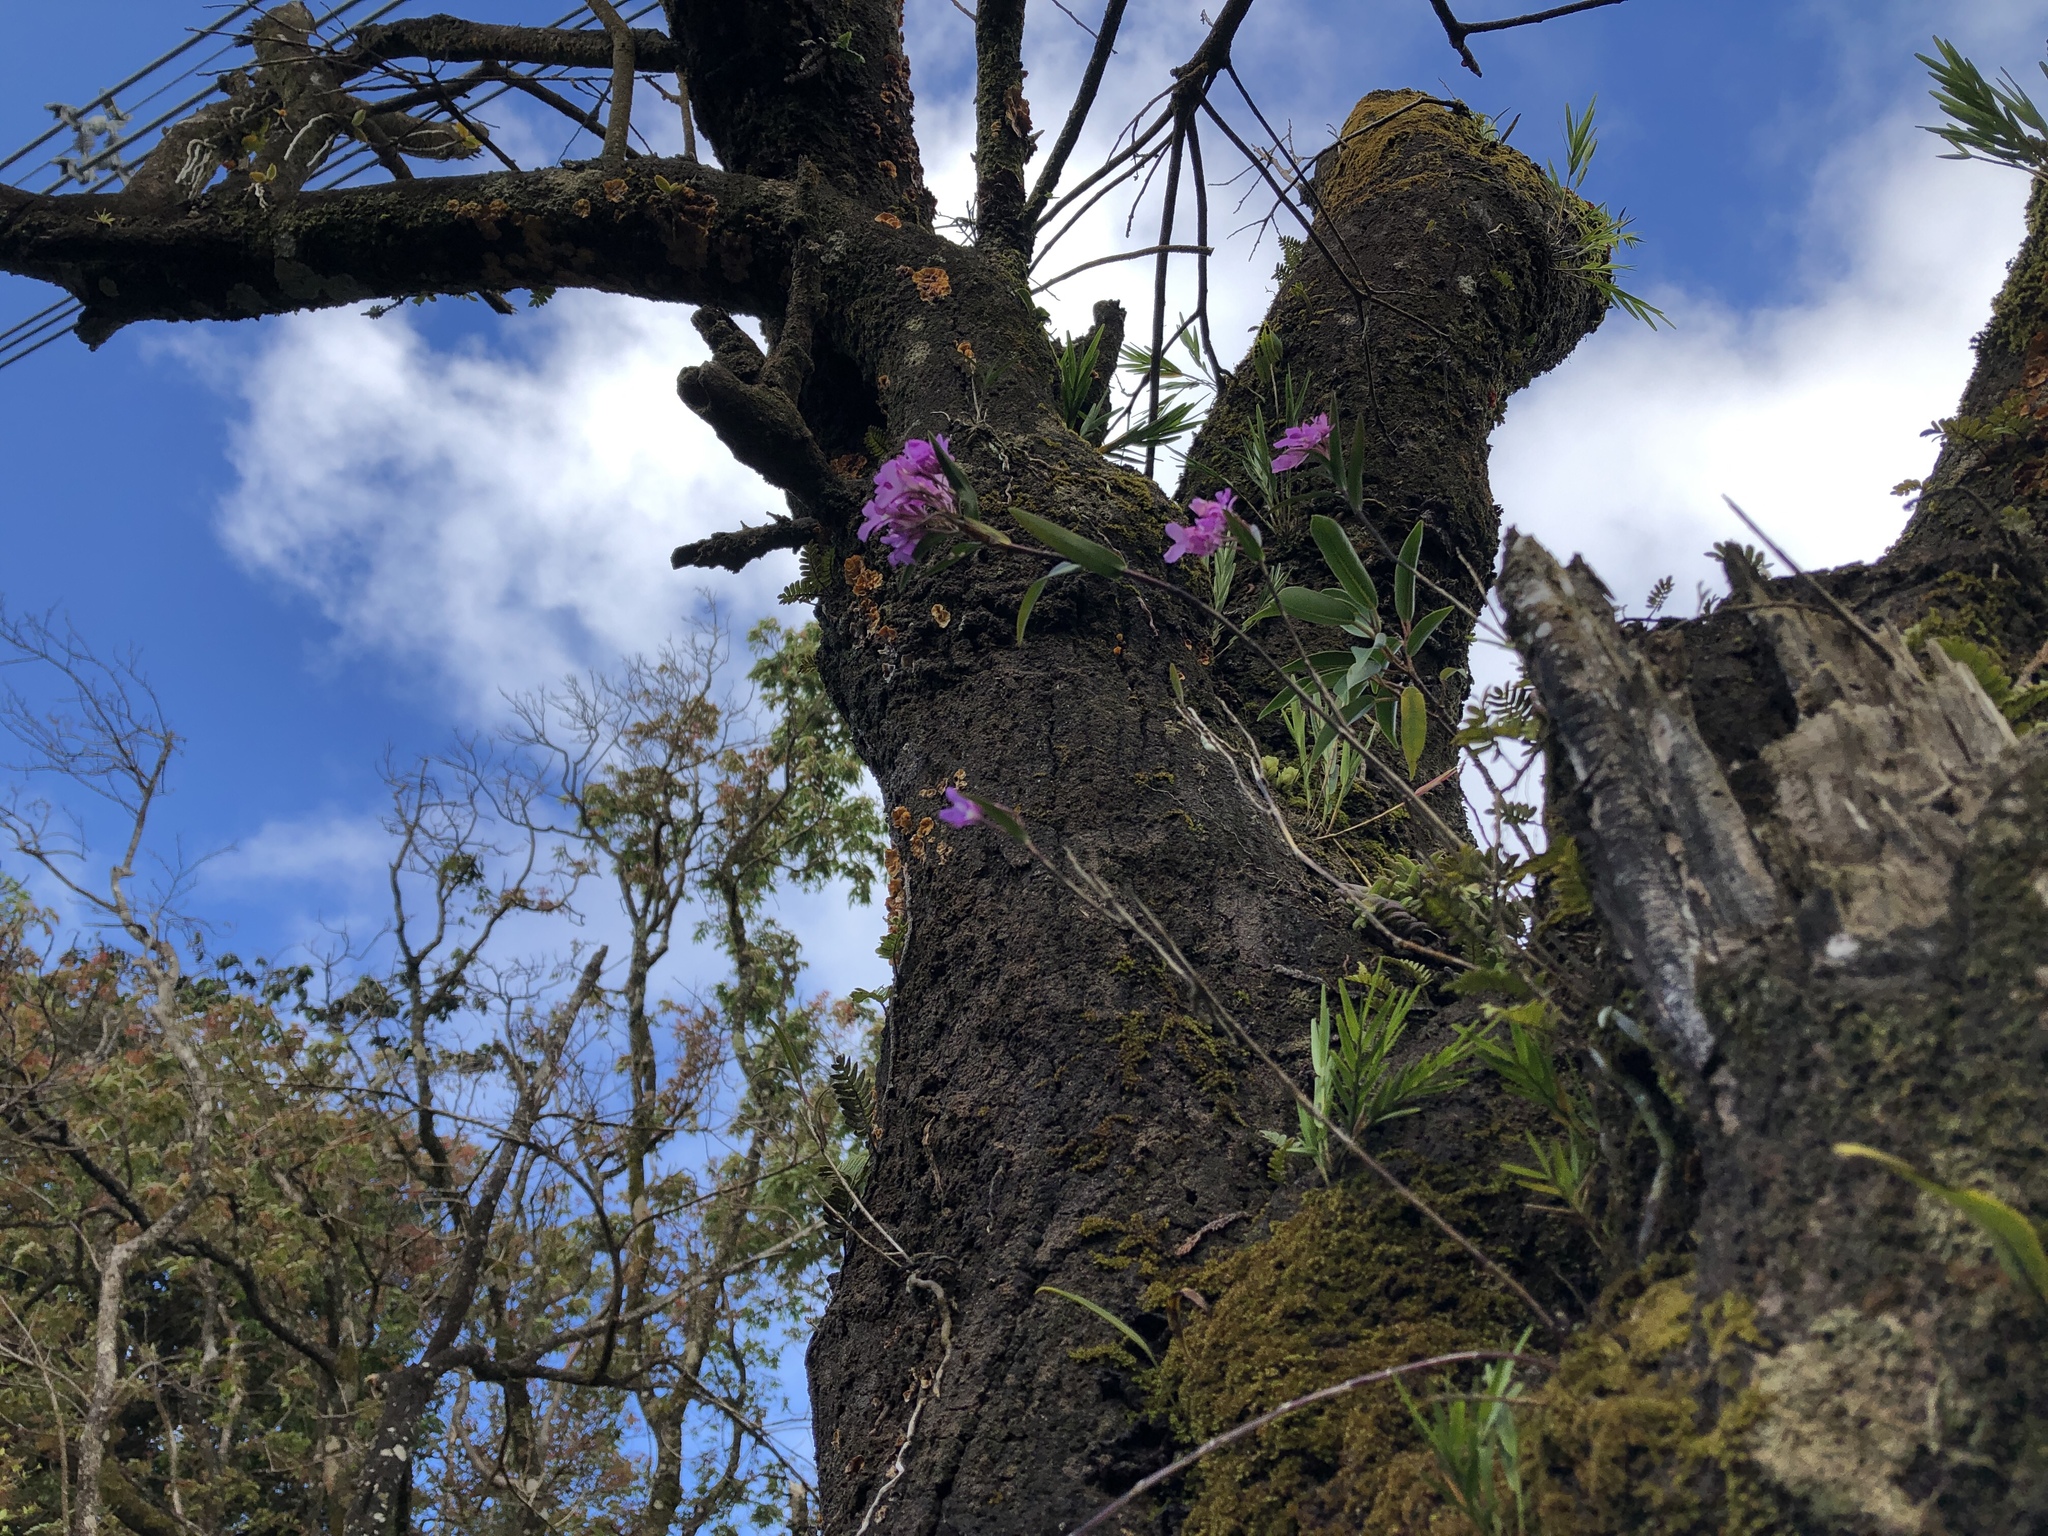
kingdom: Plantae
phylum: Tracheophyta
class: Liliopsida
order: Asparagales
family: Orchidaceae
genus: Epidendrum
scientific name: Epidendrum centropetalum
